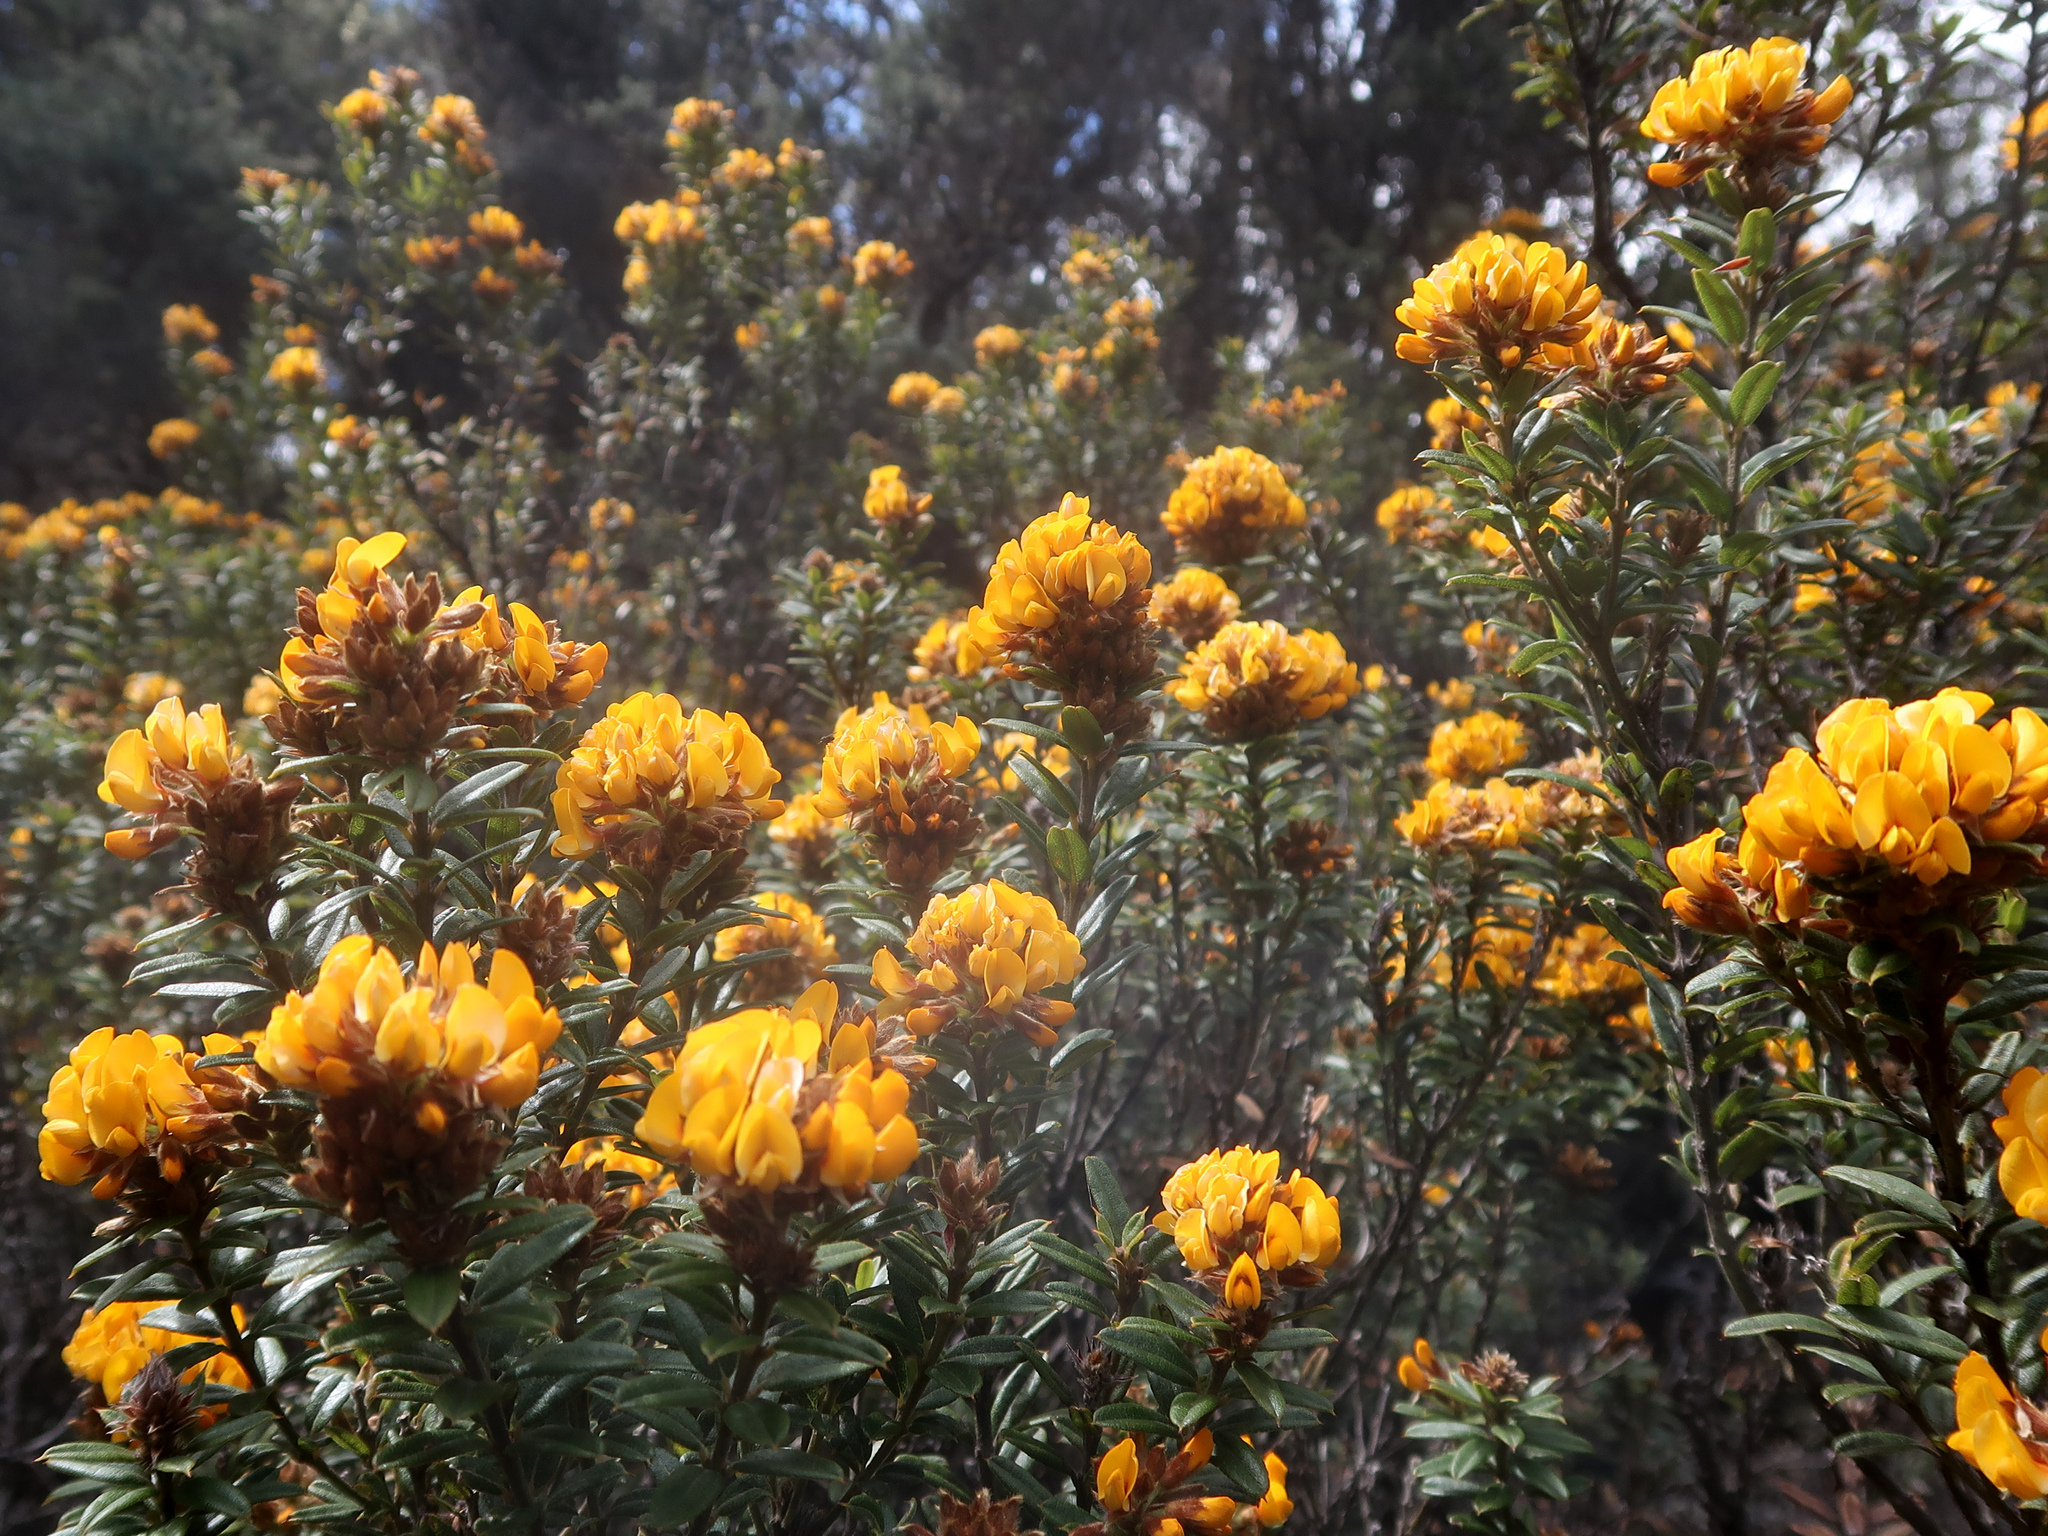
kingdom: Plantae
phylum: Tracheophyta
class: Magnoliopsida
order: Fabales
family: Fabaceae
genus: Oxylobium
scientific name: Oxylobium ellipticum
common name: Golden shaggy-pea
